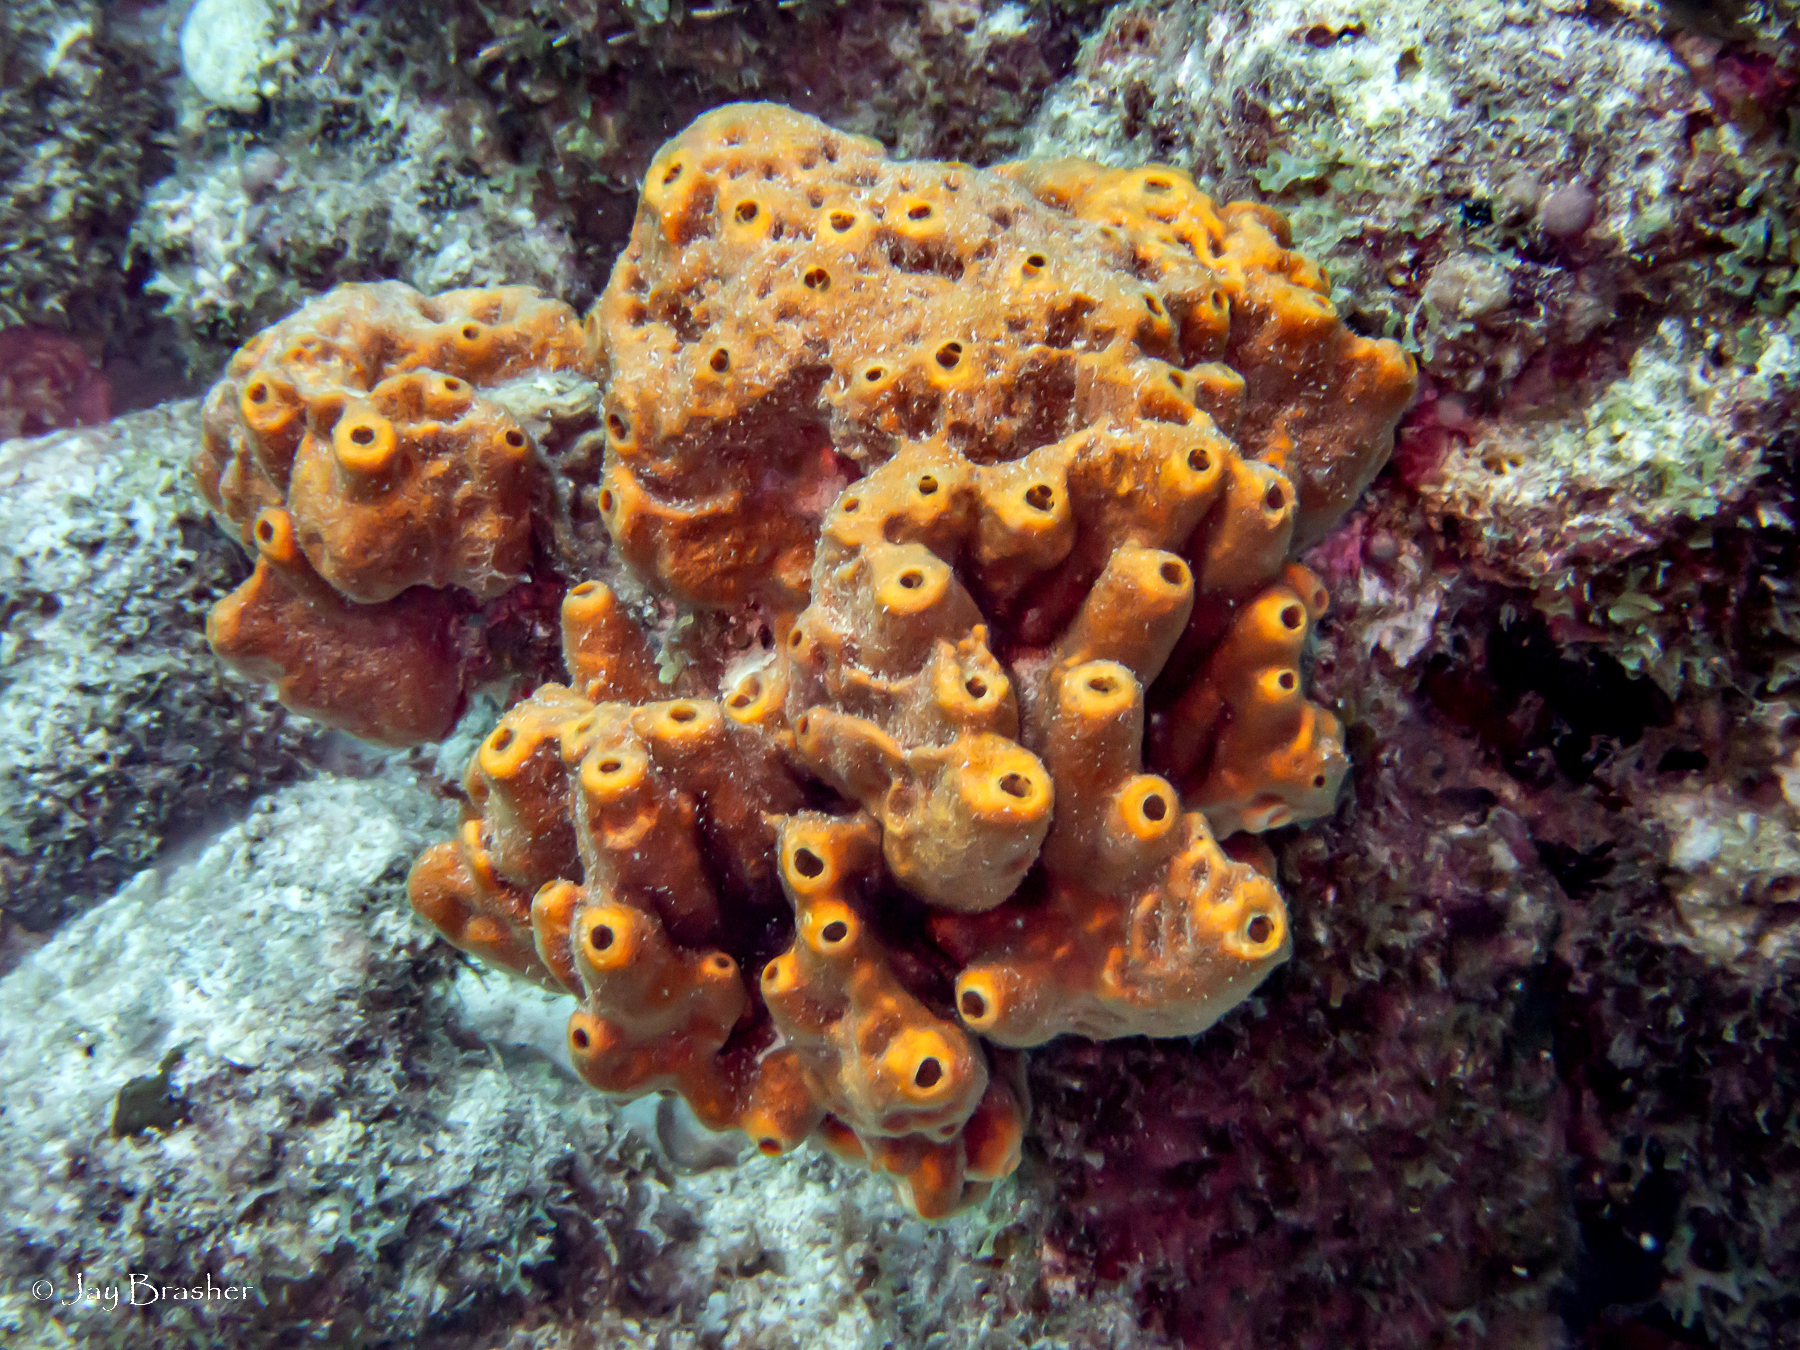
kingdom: Animalia
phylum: Porifera
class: Demospongiae
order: Axinellida
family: Raspailiidae
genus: Ectyoplasia
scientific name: Ectyoplasia ferox
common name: Brown encrusting octopus sponge
